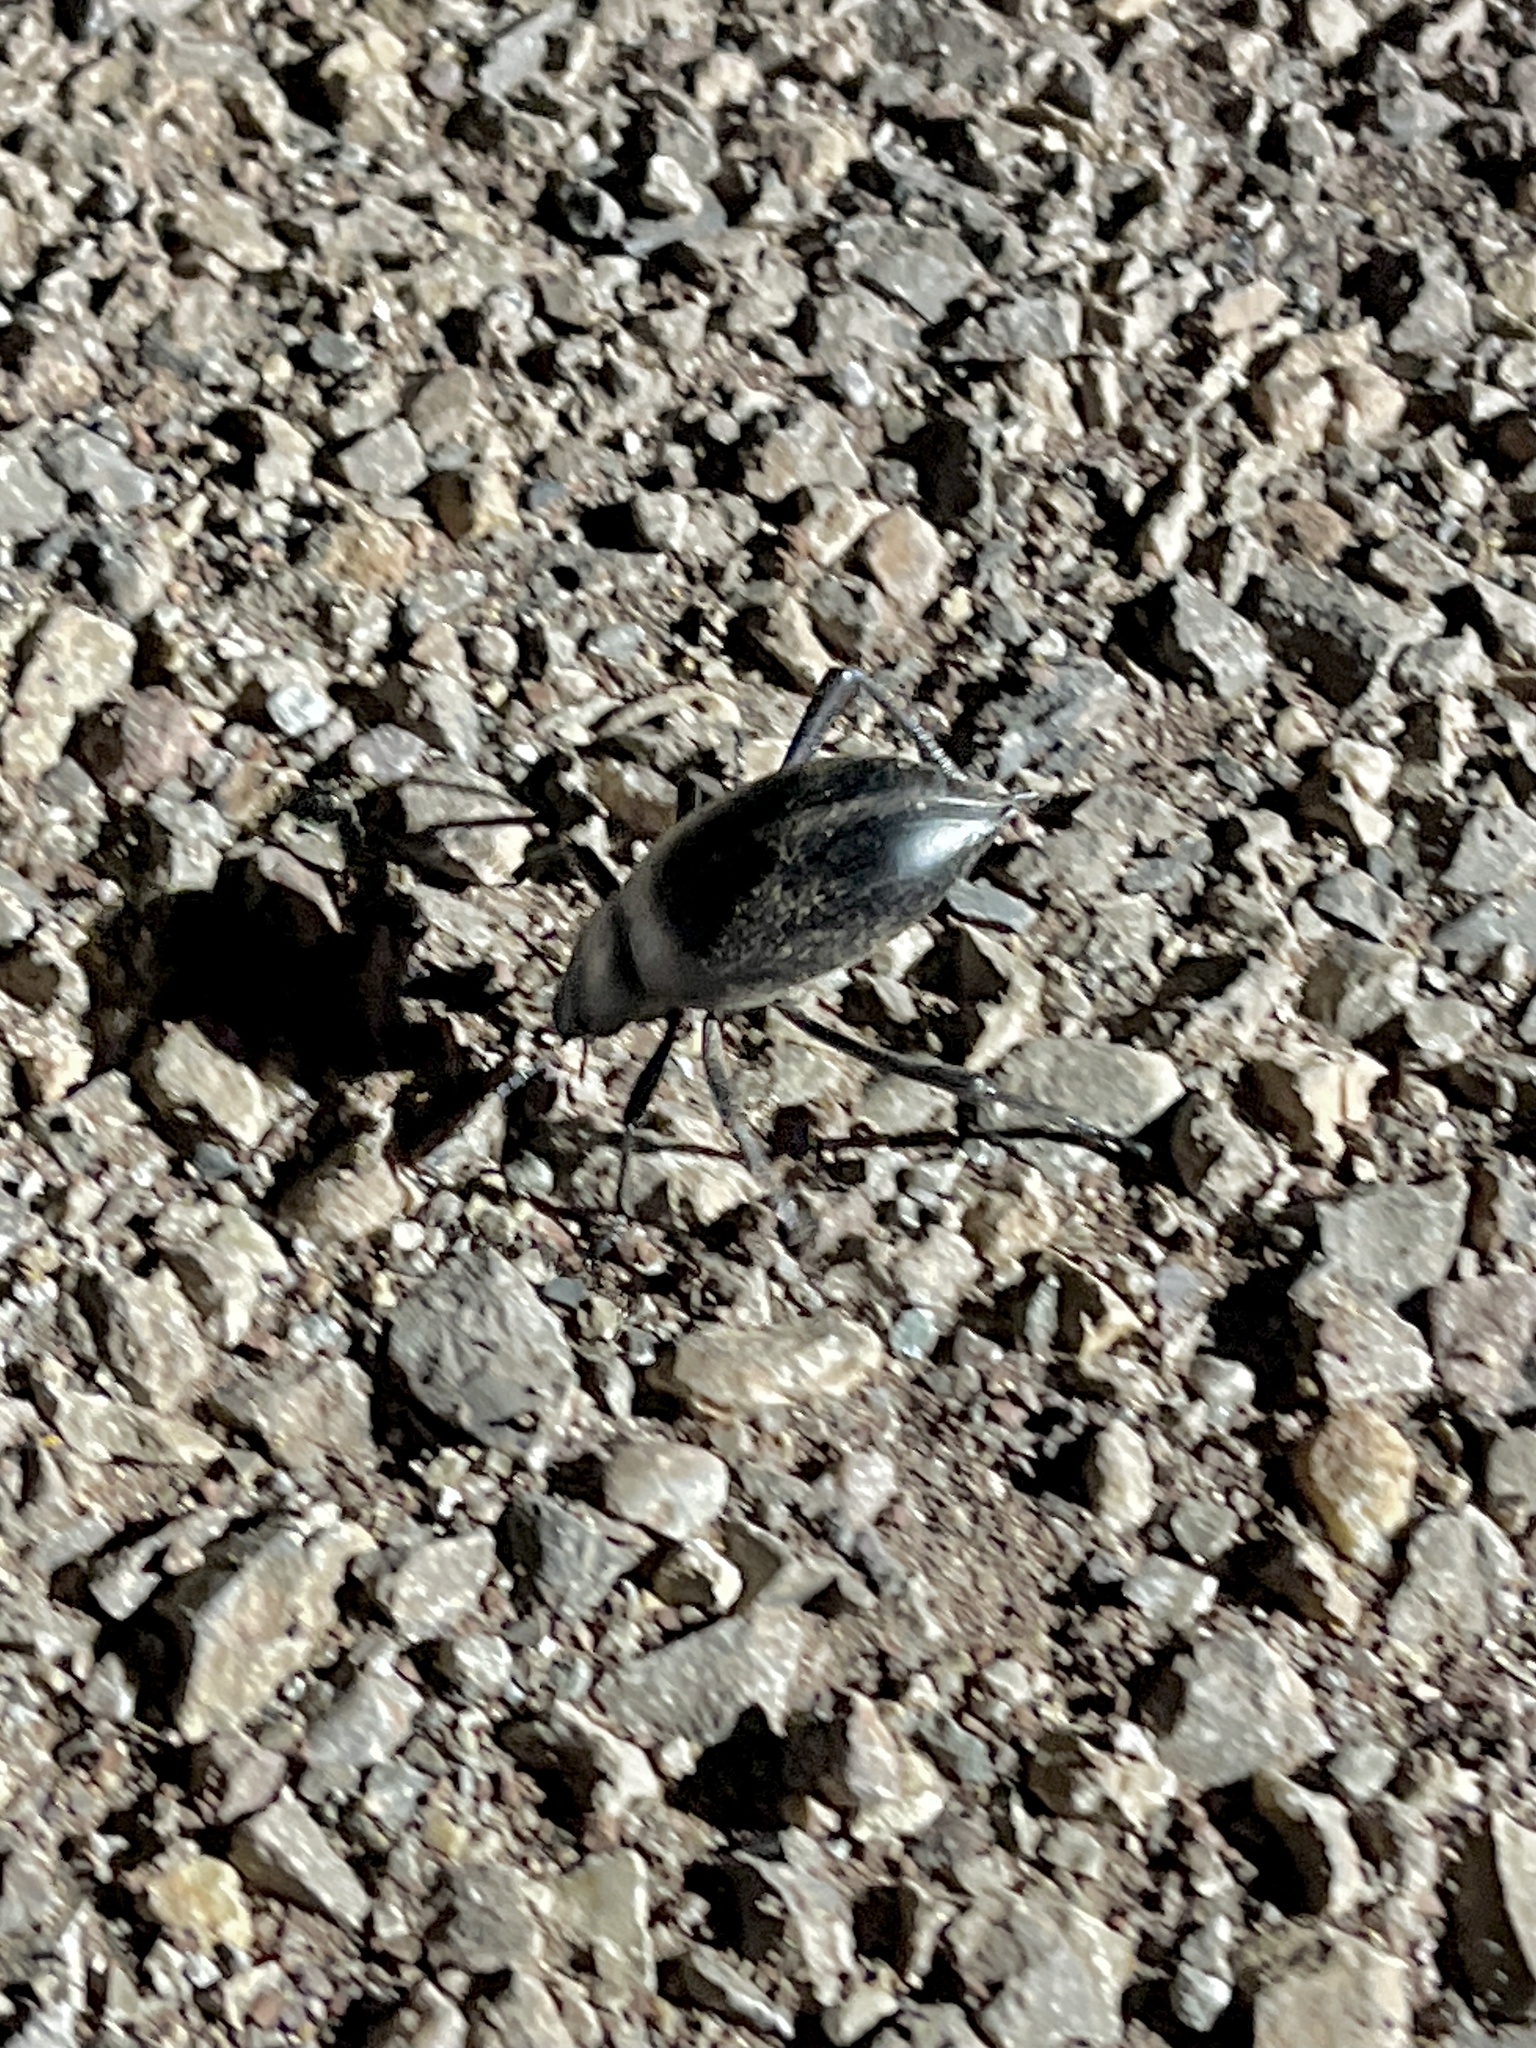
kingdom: Animalia
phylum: Arthropoda
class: Insecta
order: Coleoptera
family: Tenebrionidae
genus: Eleodes
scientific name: Eleodes spinipes
